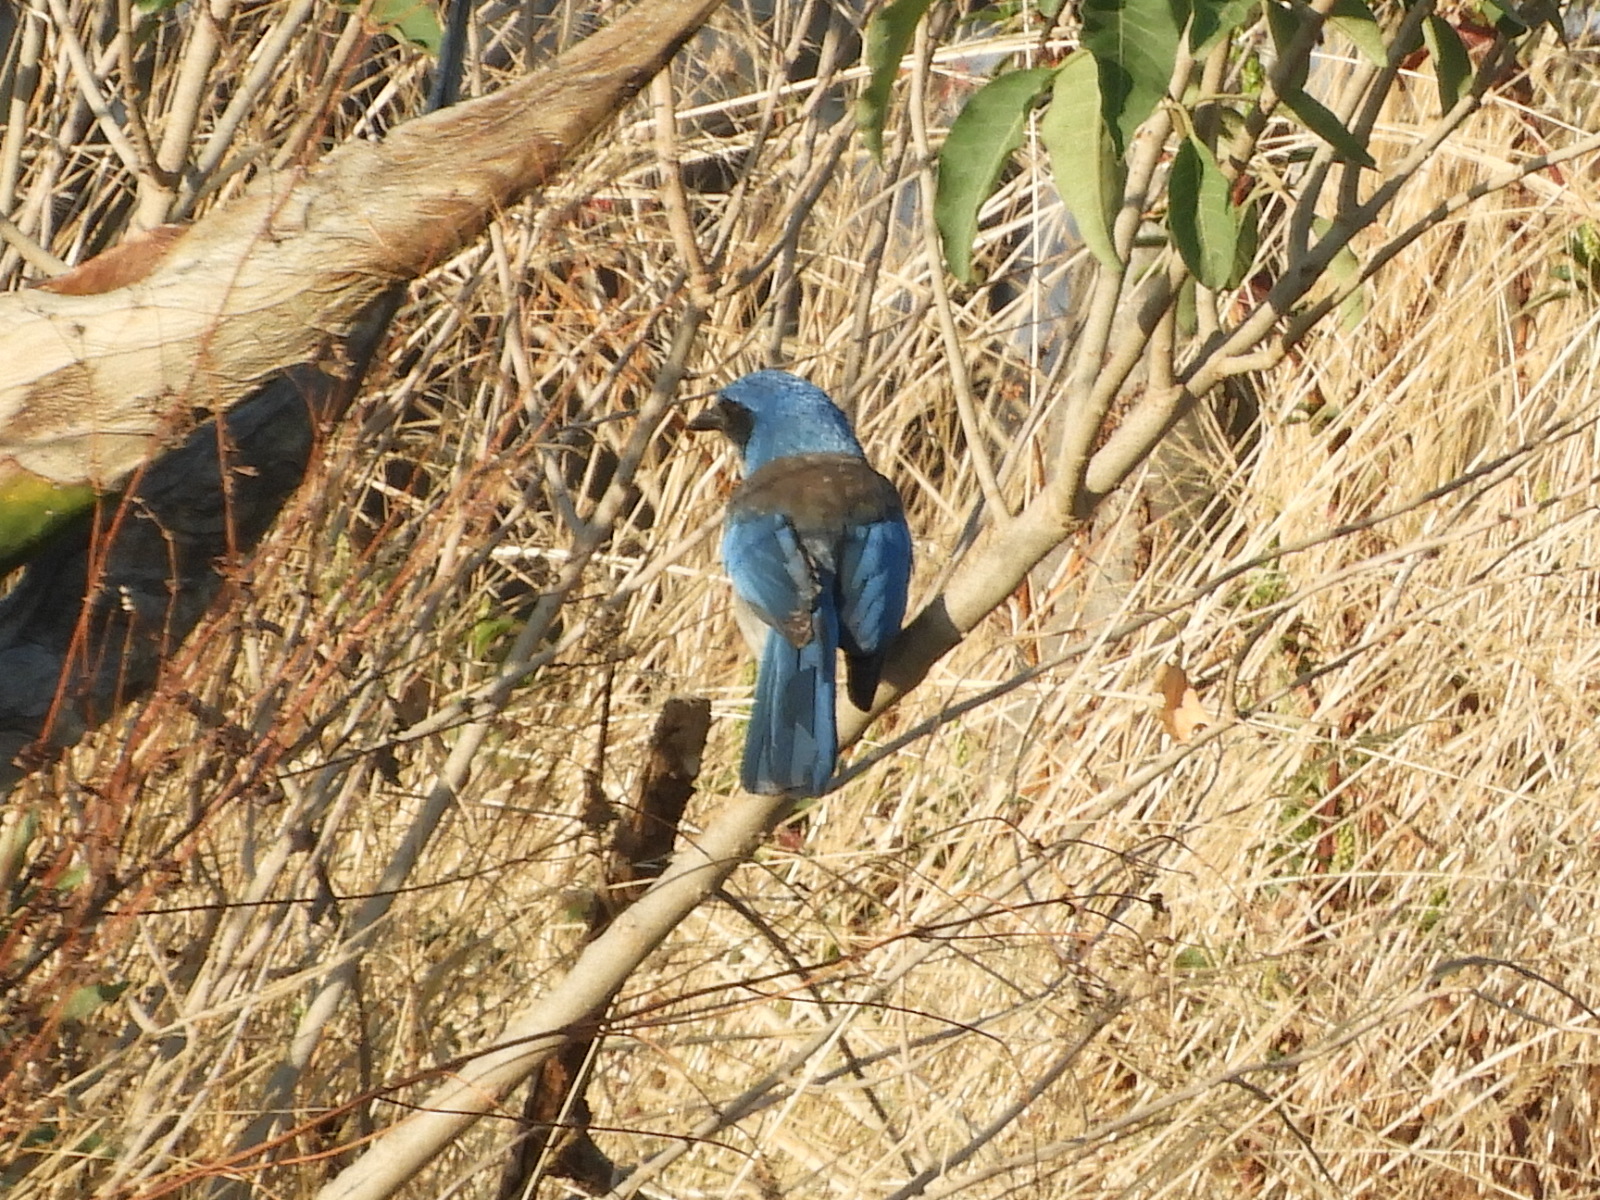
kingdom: Animalia
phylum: Chordata
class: Aves
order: Passeriformes
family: Corvidae
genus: Aphelocoma
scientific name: Aphelocoma woodhouseii
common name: Woodhouse's scrub-jay
